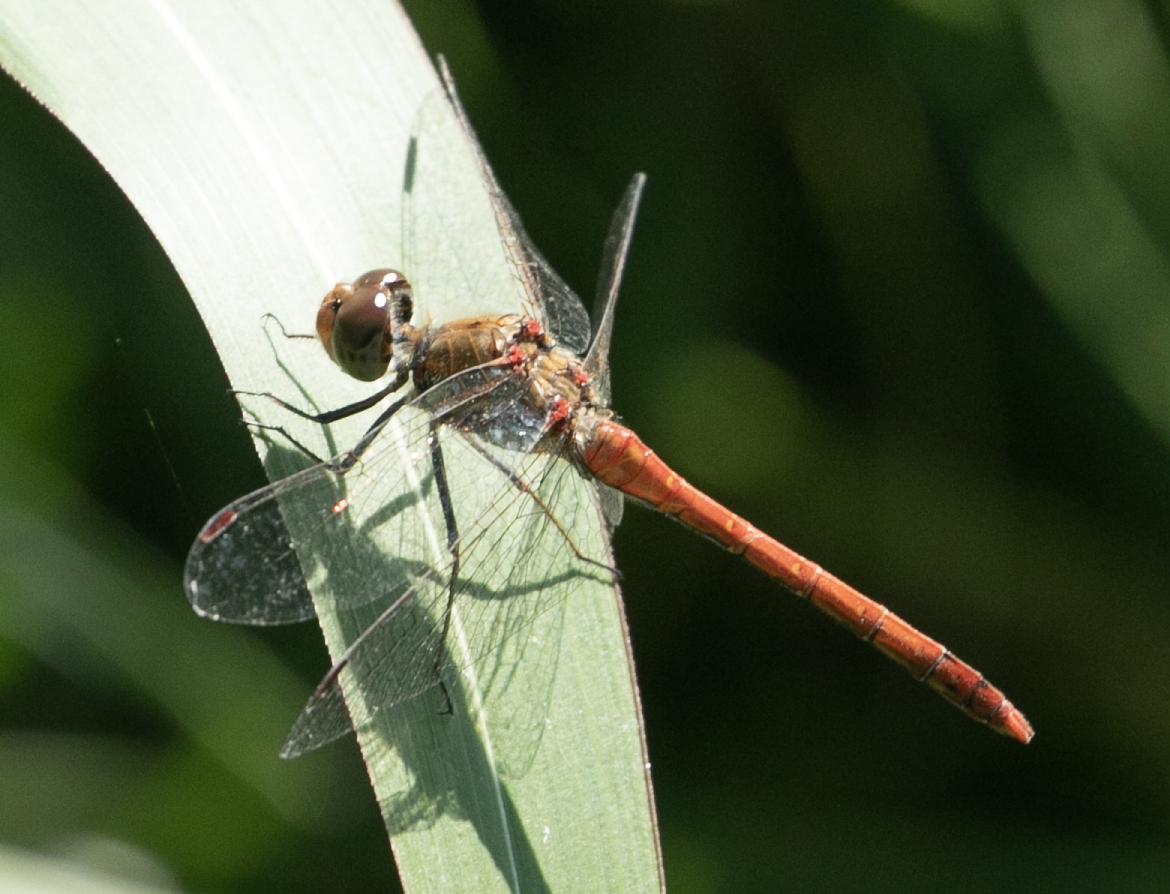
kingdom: Animalia
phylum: Arthropoda
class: Insecta
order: Odonata
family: Libellulidae
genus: Sympetrum
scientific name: Sympetrum striolatum
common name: Common darter
